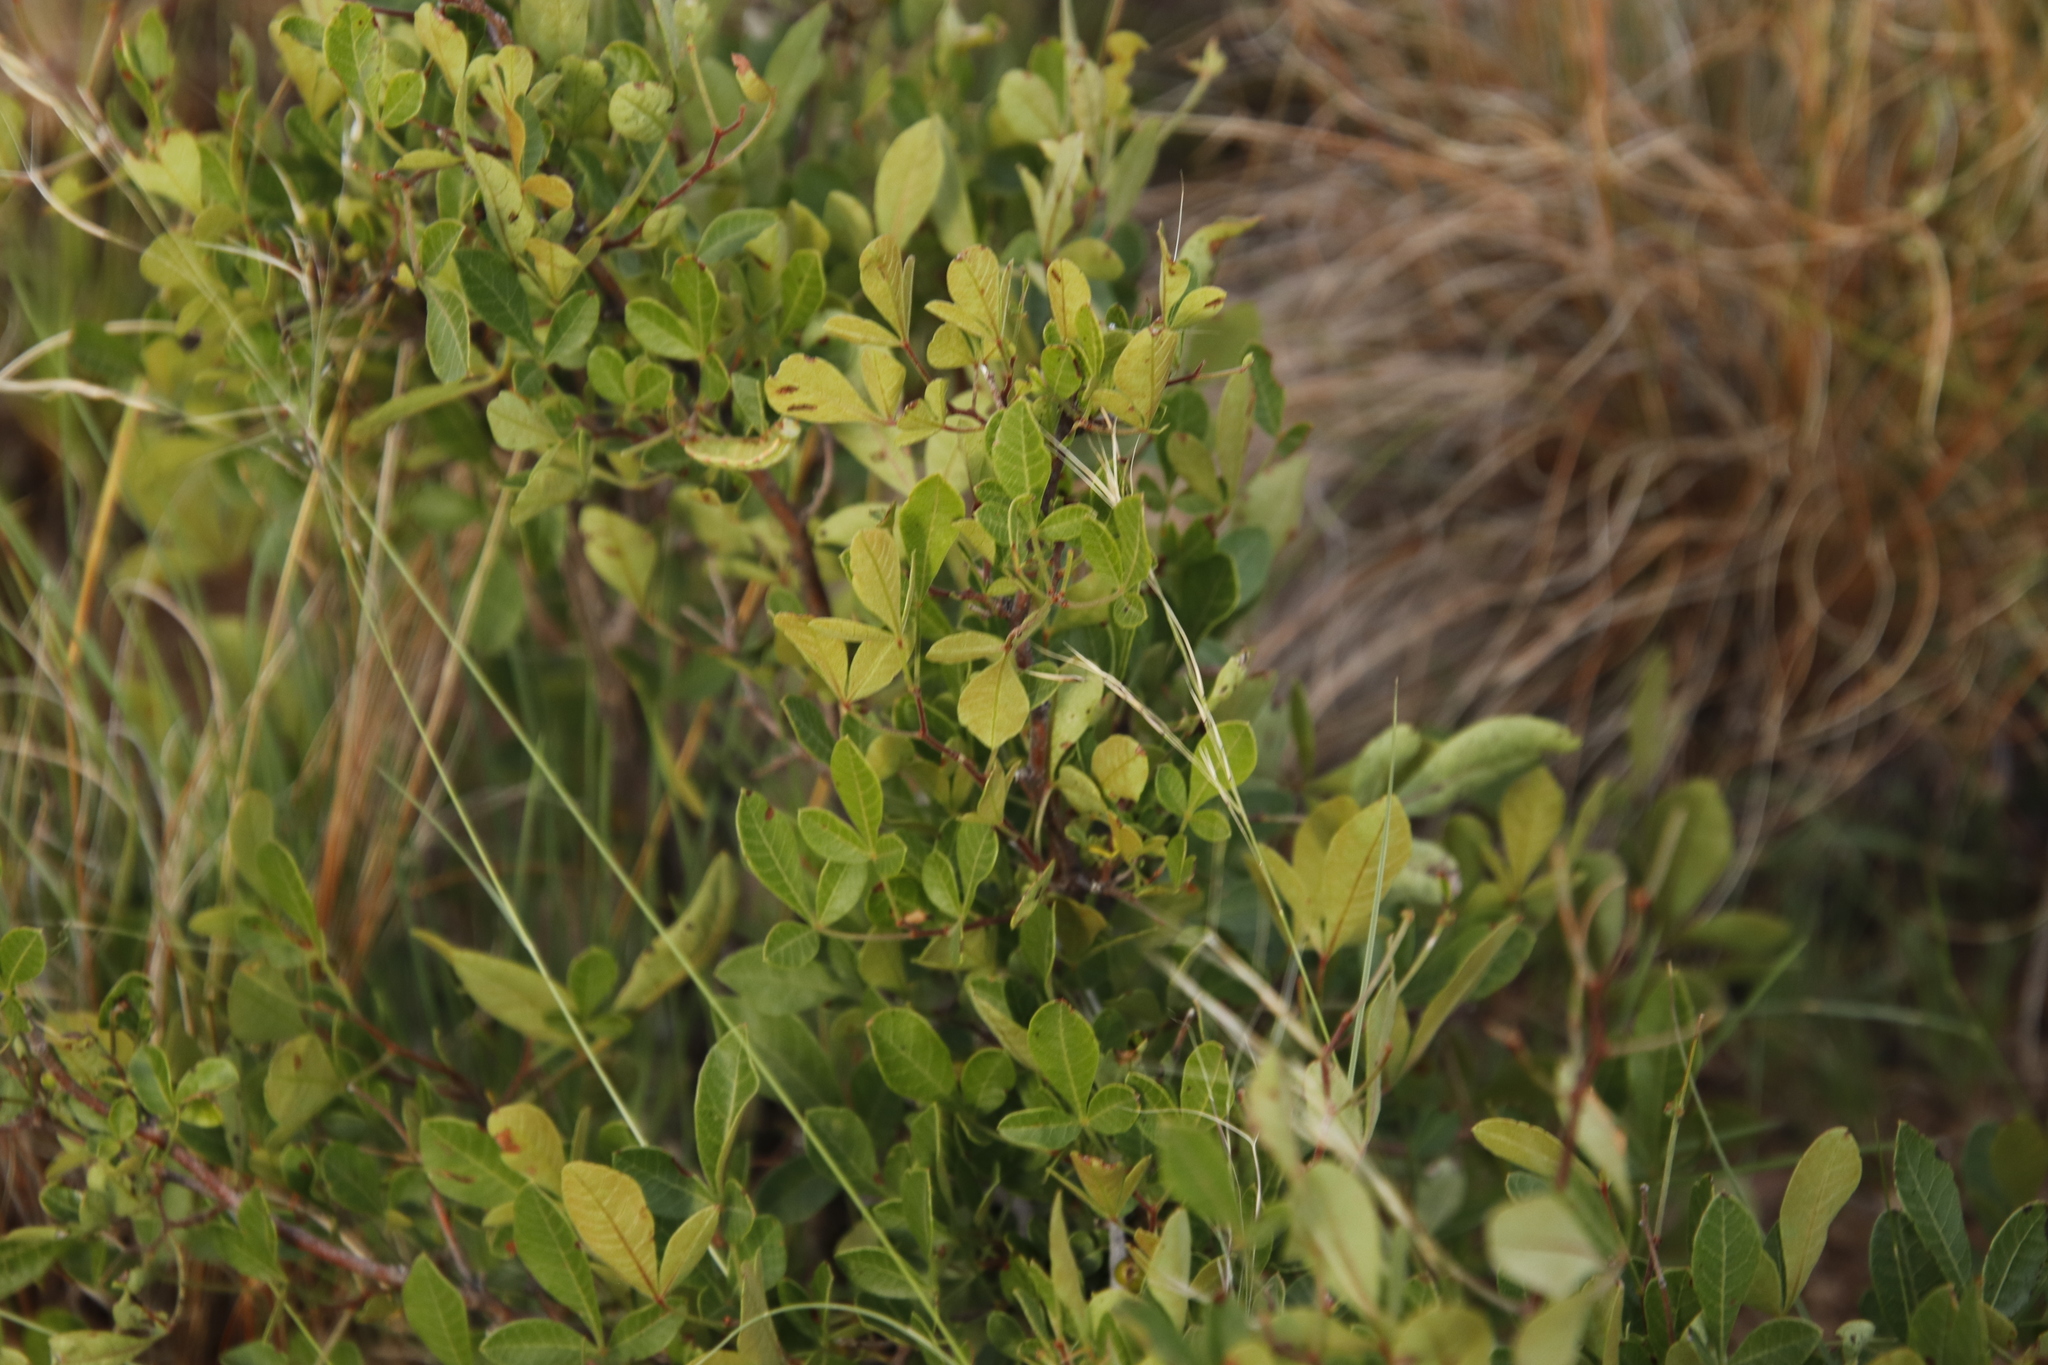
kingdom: Plantae
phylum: Tracheophyta
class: Magnoliopsida
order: Sapindales
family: Anacardiaceae
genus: Searsia
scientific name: Searsia divaricata
